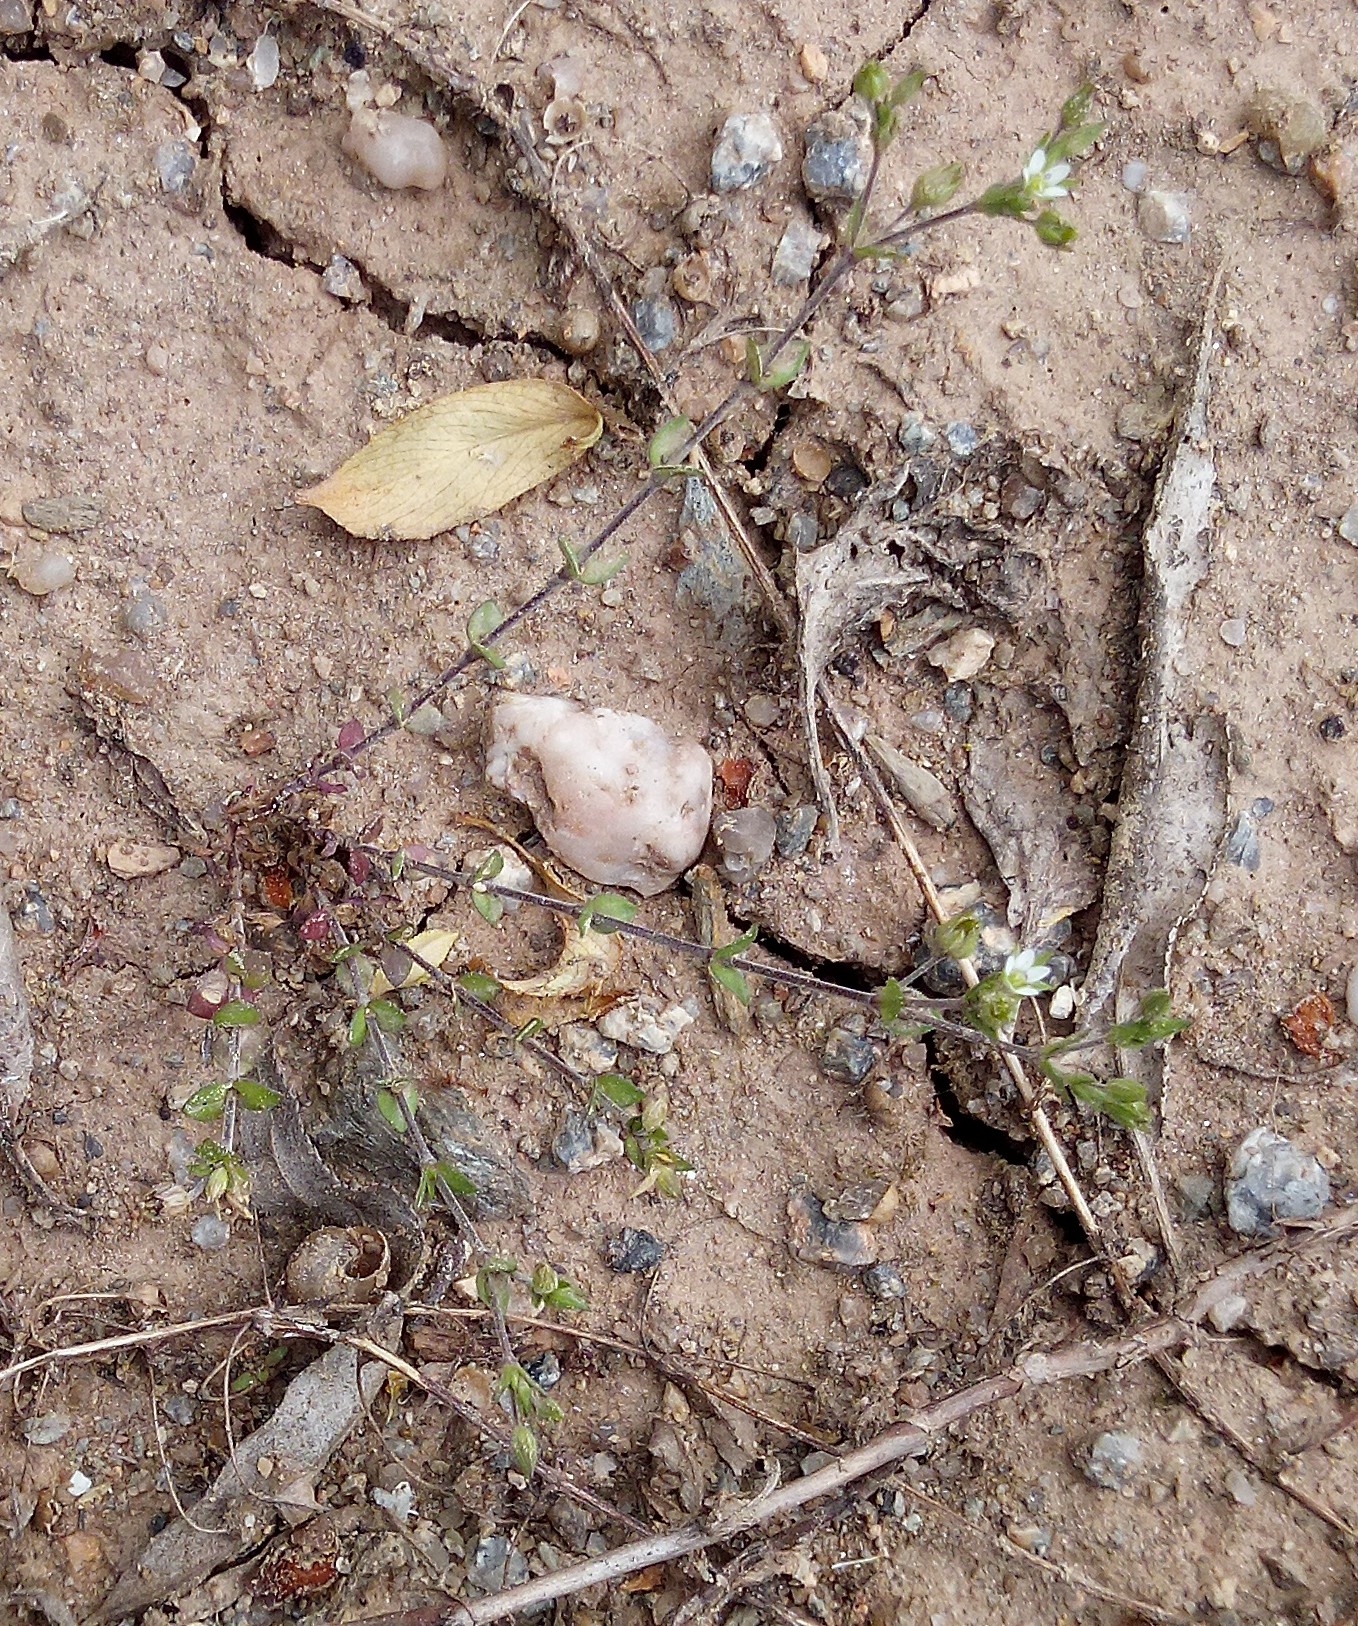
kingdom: Plantae
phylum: Tracheophyta
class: Magnoliopsida
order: Caryophyllales
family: Caryophyllaceae
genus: Arenaria
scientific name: Arenaria serpyllifolia
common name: Thyme-leaved sandwort
